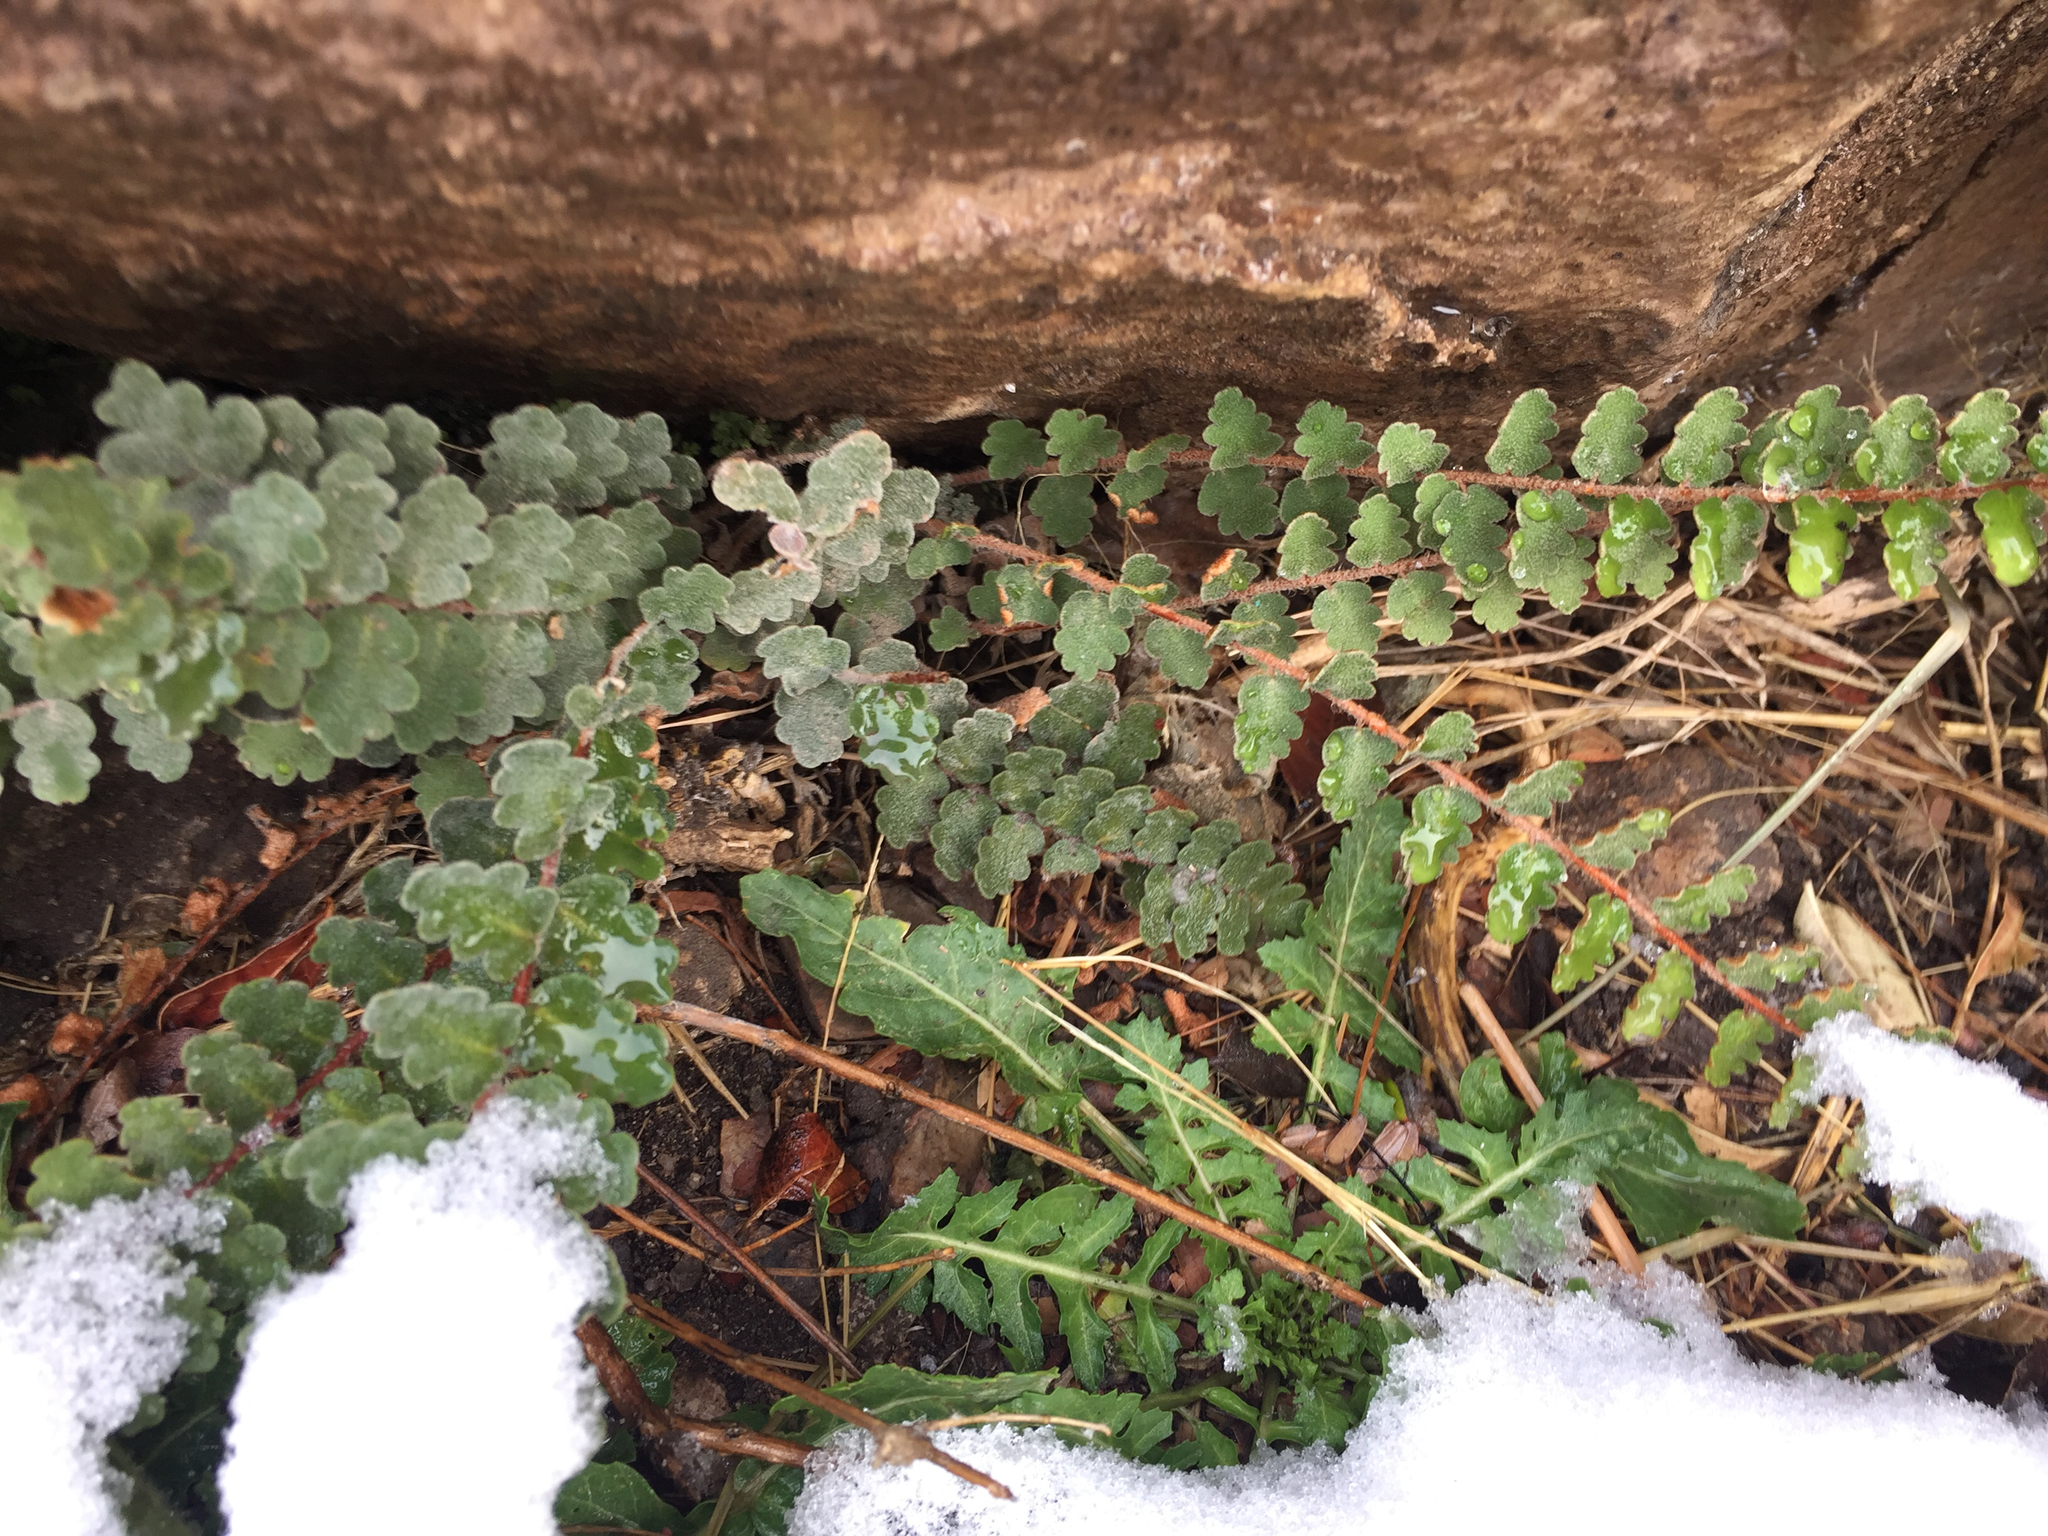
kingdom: Plantae
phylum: Tracheophyta
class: Polypodiopsida
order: Polypodiales
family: Pteridaceae
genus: Astrolepis
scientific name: Astrolepis sinuata
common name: Wavy scaly cloakfern
